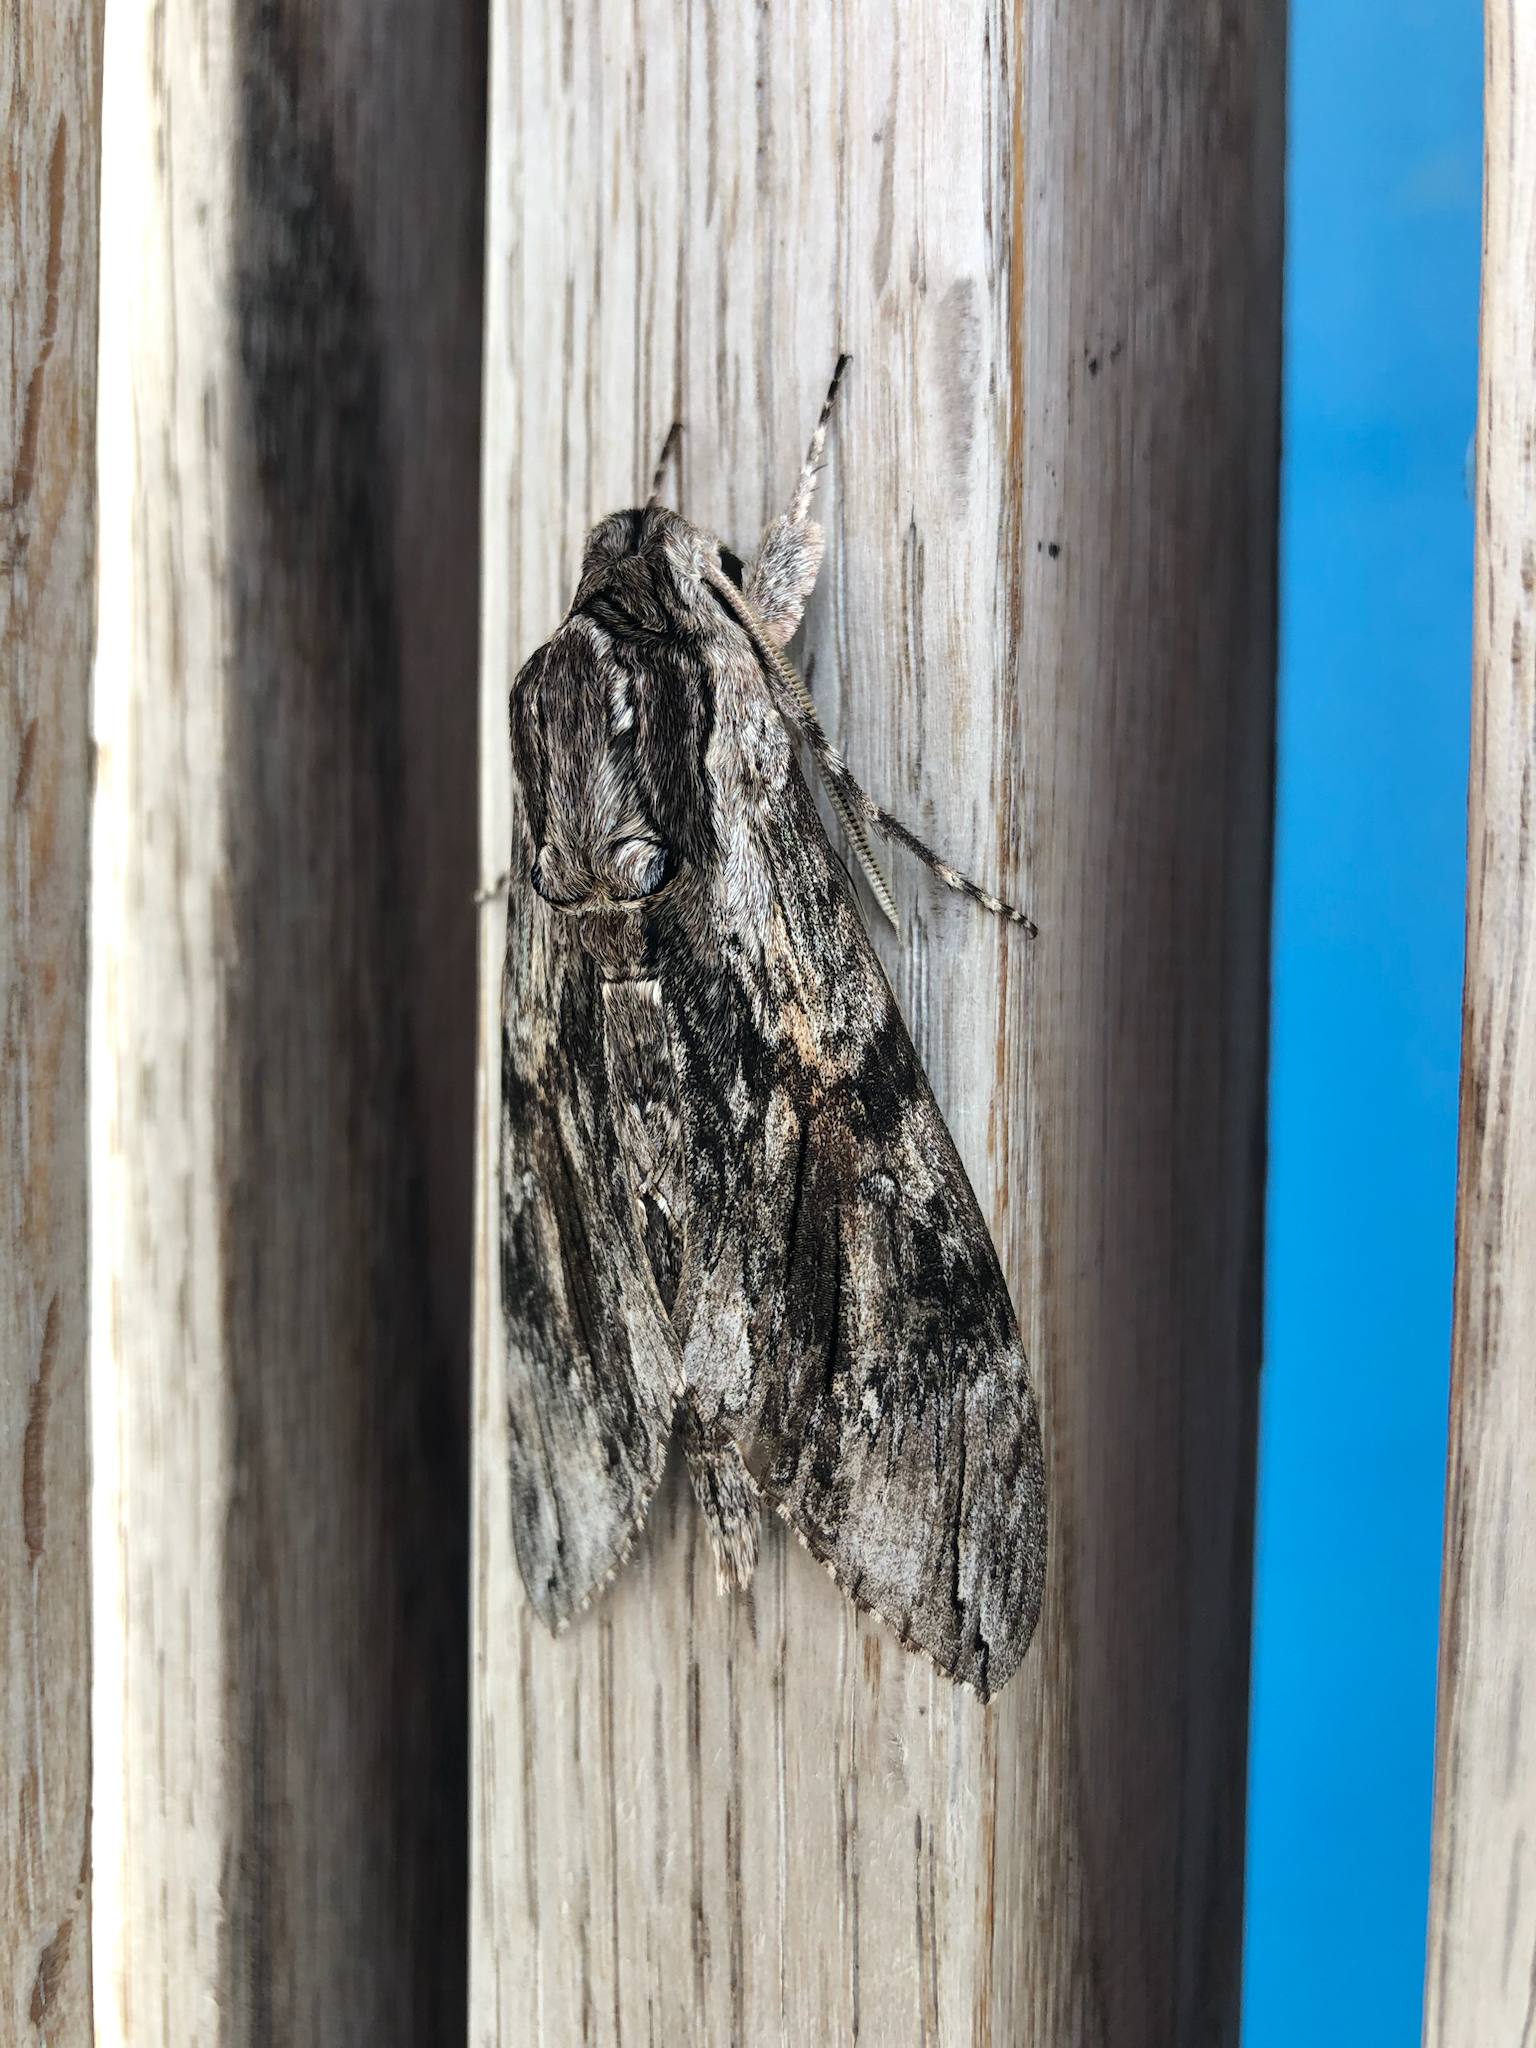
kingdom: Animalia
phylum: Arthropoda
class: Insecta
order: Lepidoptera
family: Sphingidae
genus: Agrius
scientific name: Agrius convolvuli
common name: Convolvulus hawkmoth
